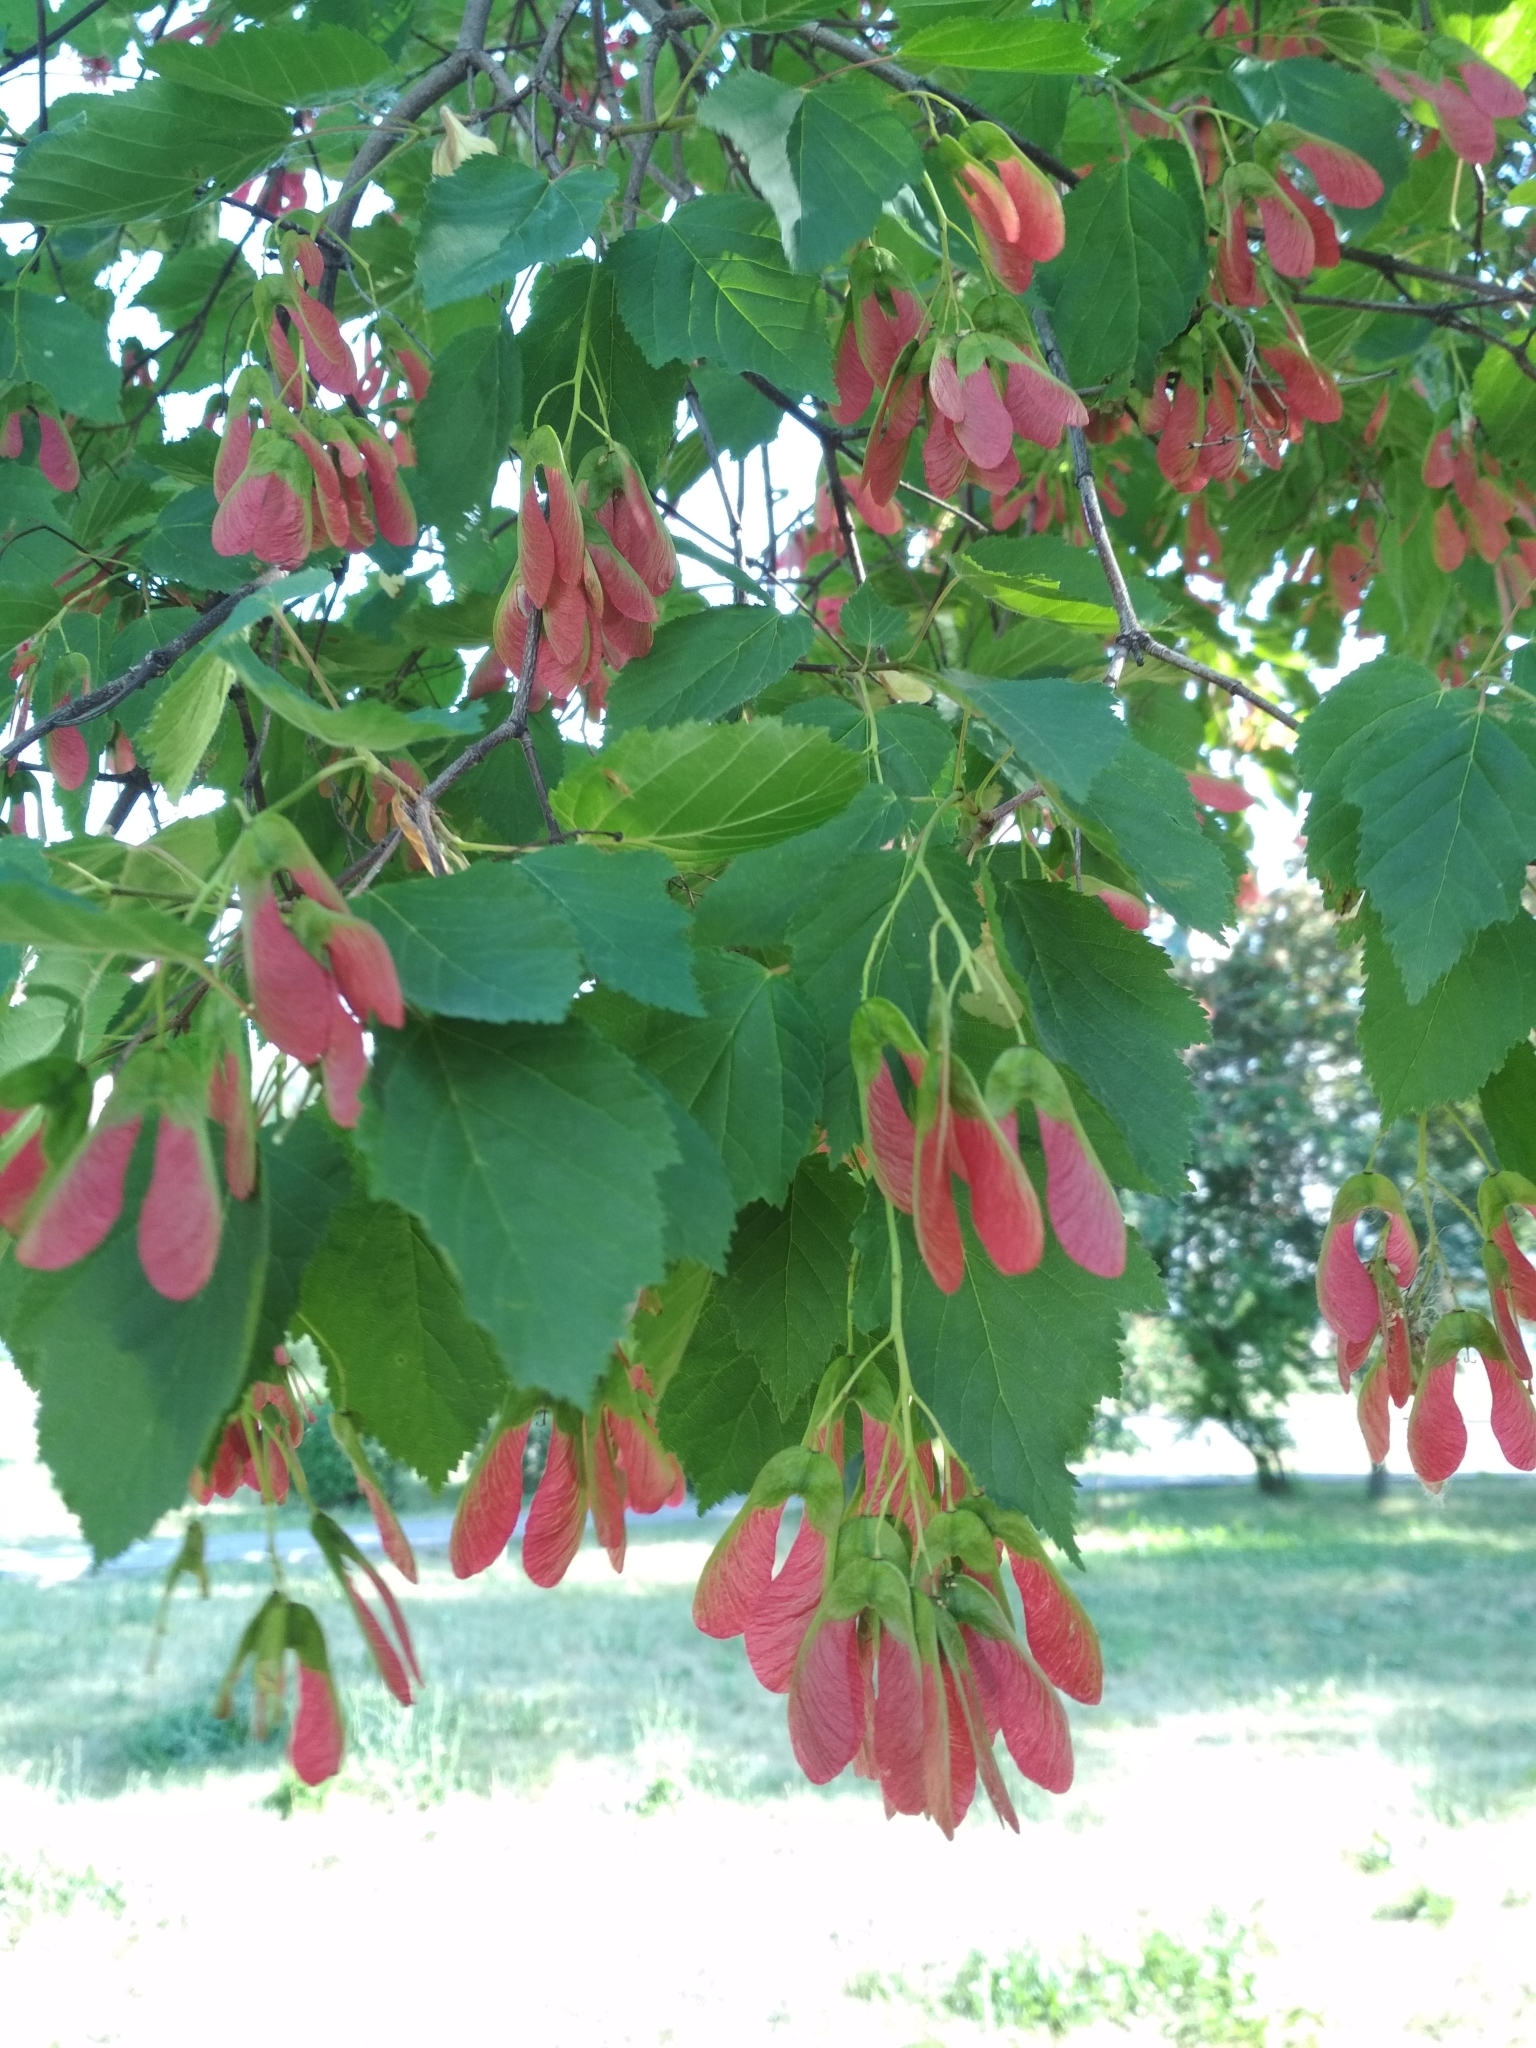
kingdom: Plantae
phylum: Tracheophyta
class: Magnoliopsida
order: Sapindales
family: Sapindaceae
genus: Acer
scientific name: Acer tataricum
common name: Tartar maple
